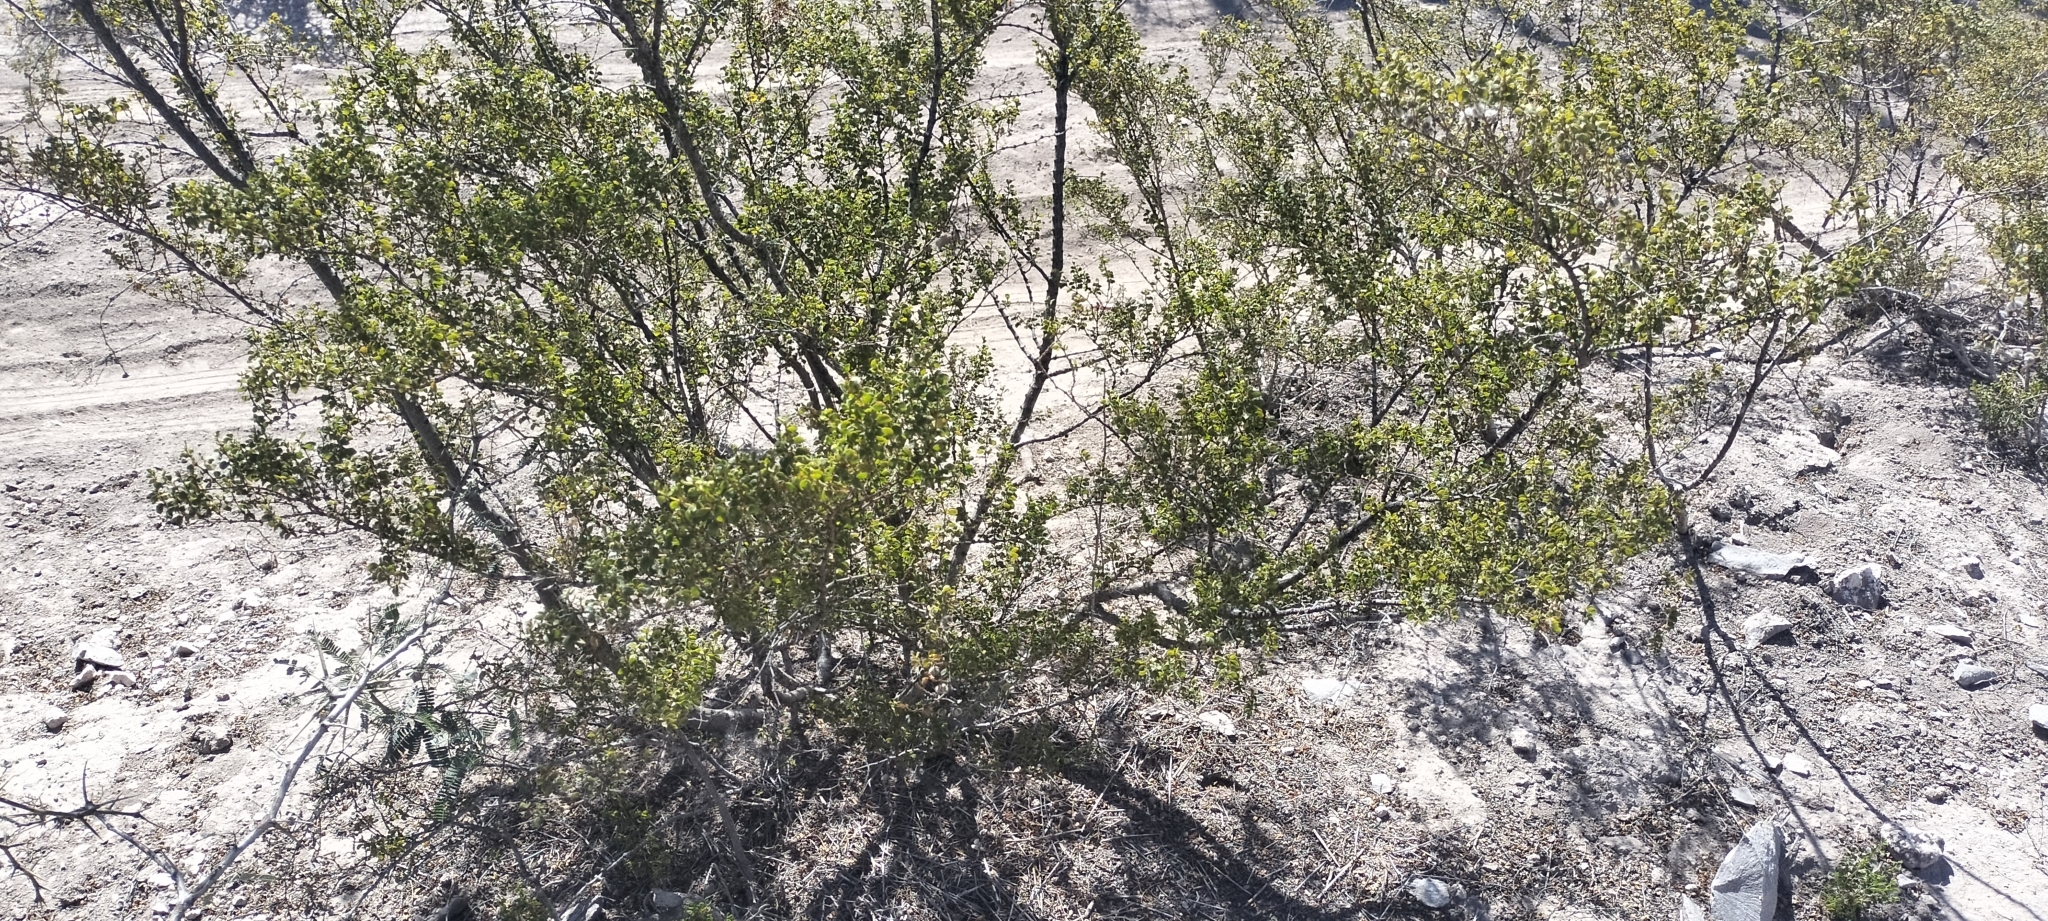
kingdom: Plantae
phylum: Tracheophyta
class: Magnoliopsida
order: Zygophyllales
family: Zygophyllaceae
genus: Larrea
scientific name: Larrea tridentata
